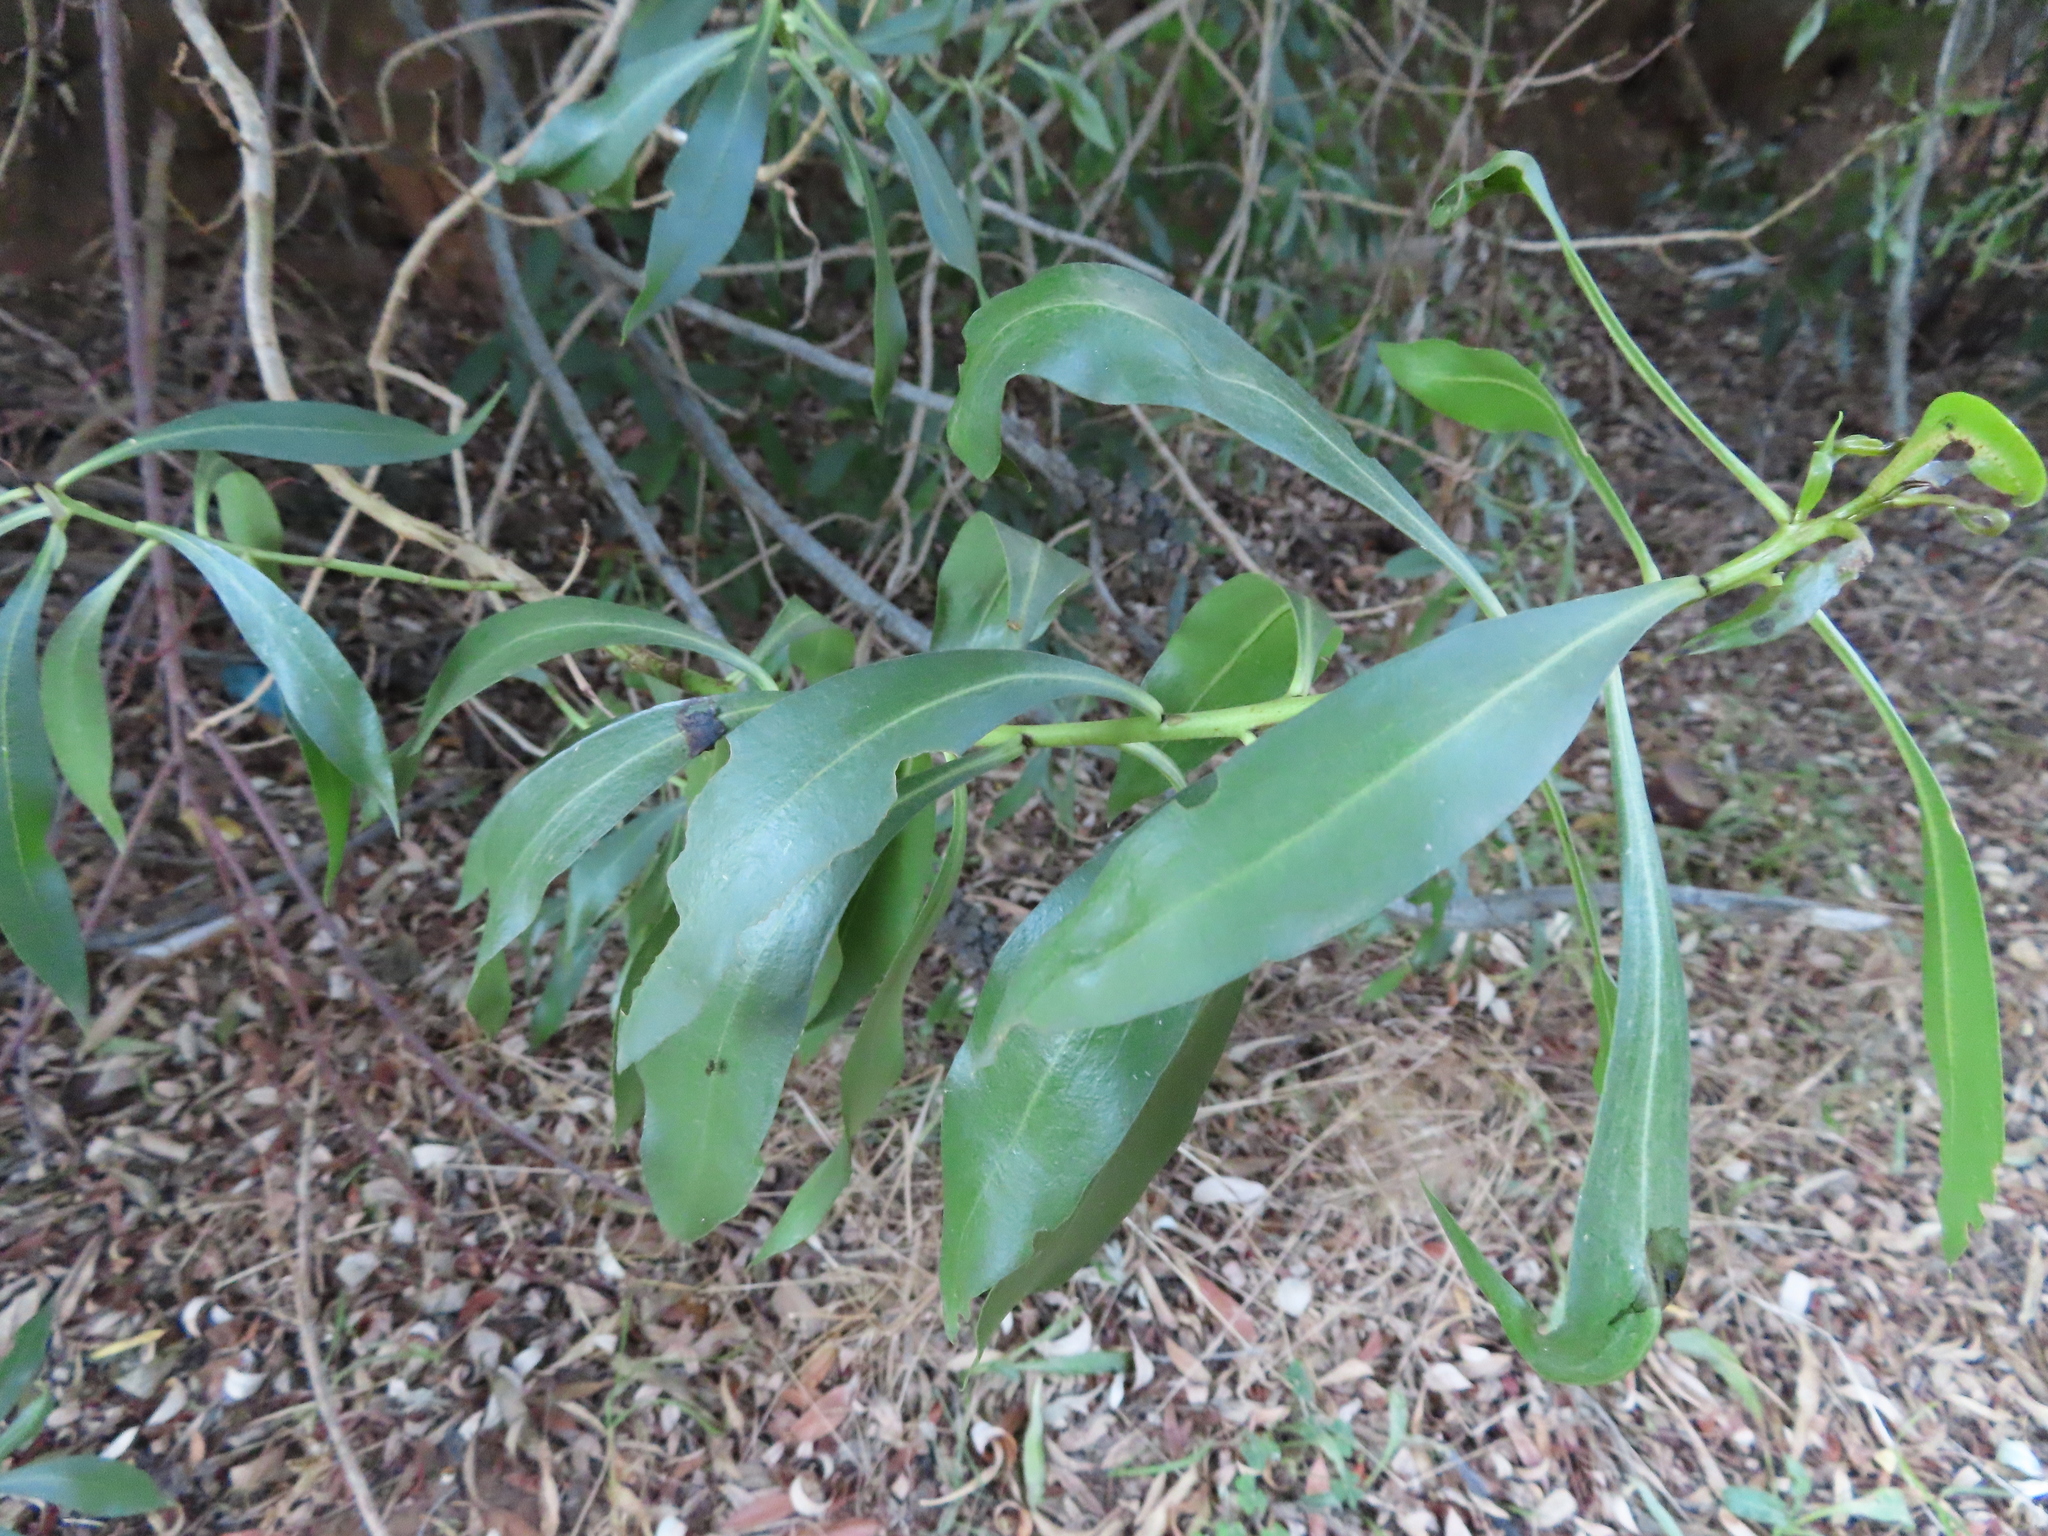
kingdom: Plantae
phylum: Tracheophyta
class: Magnoliopsida
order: Lamiales
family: Scrophulariaceae
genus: Myoporum
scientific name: Myoporum montanum
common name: Waterbush
